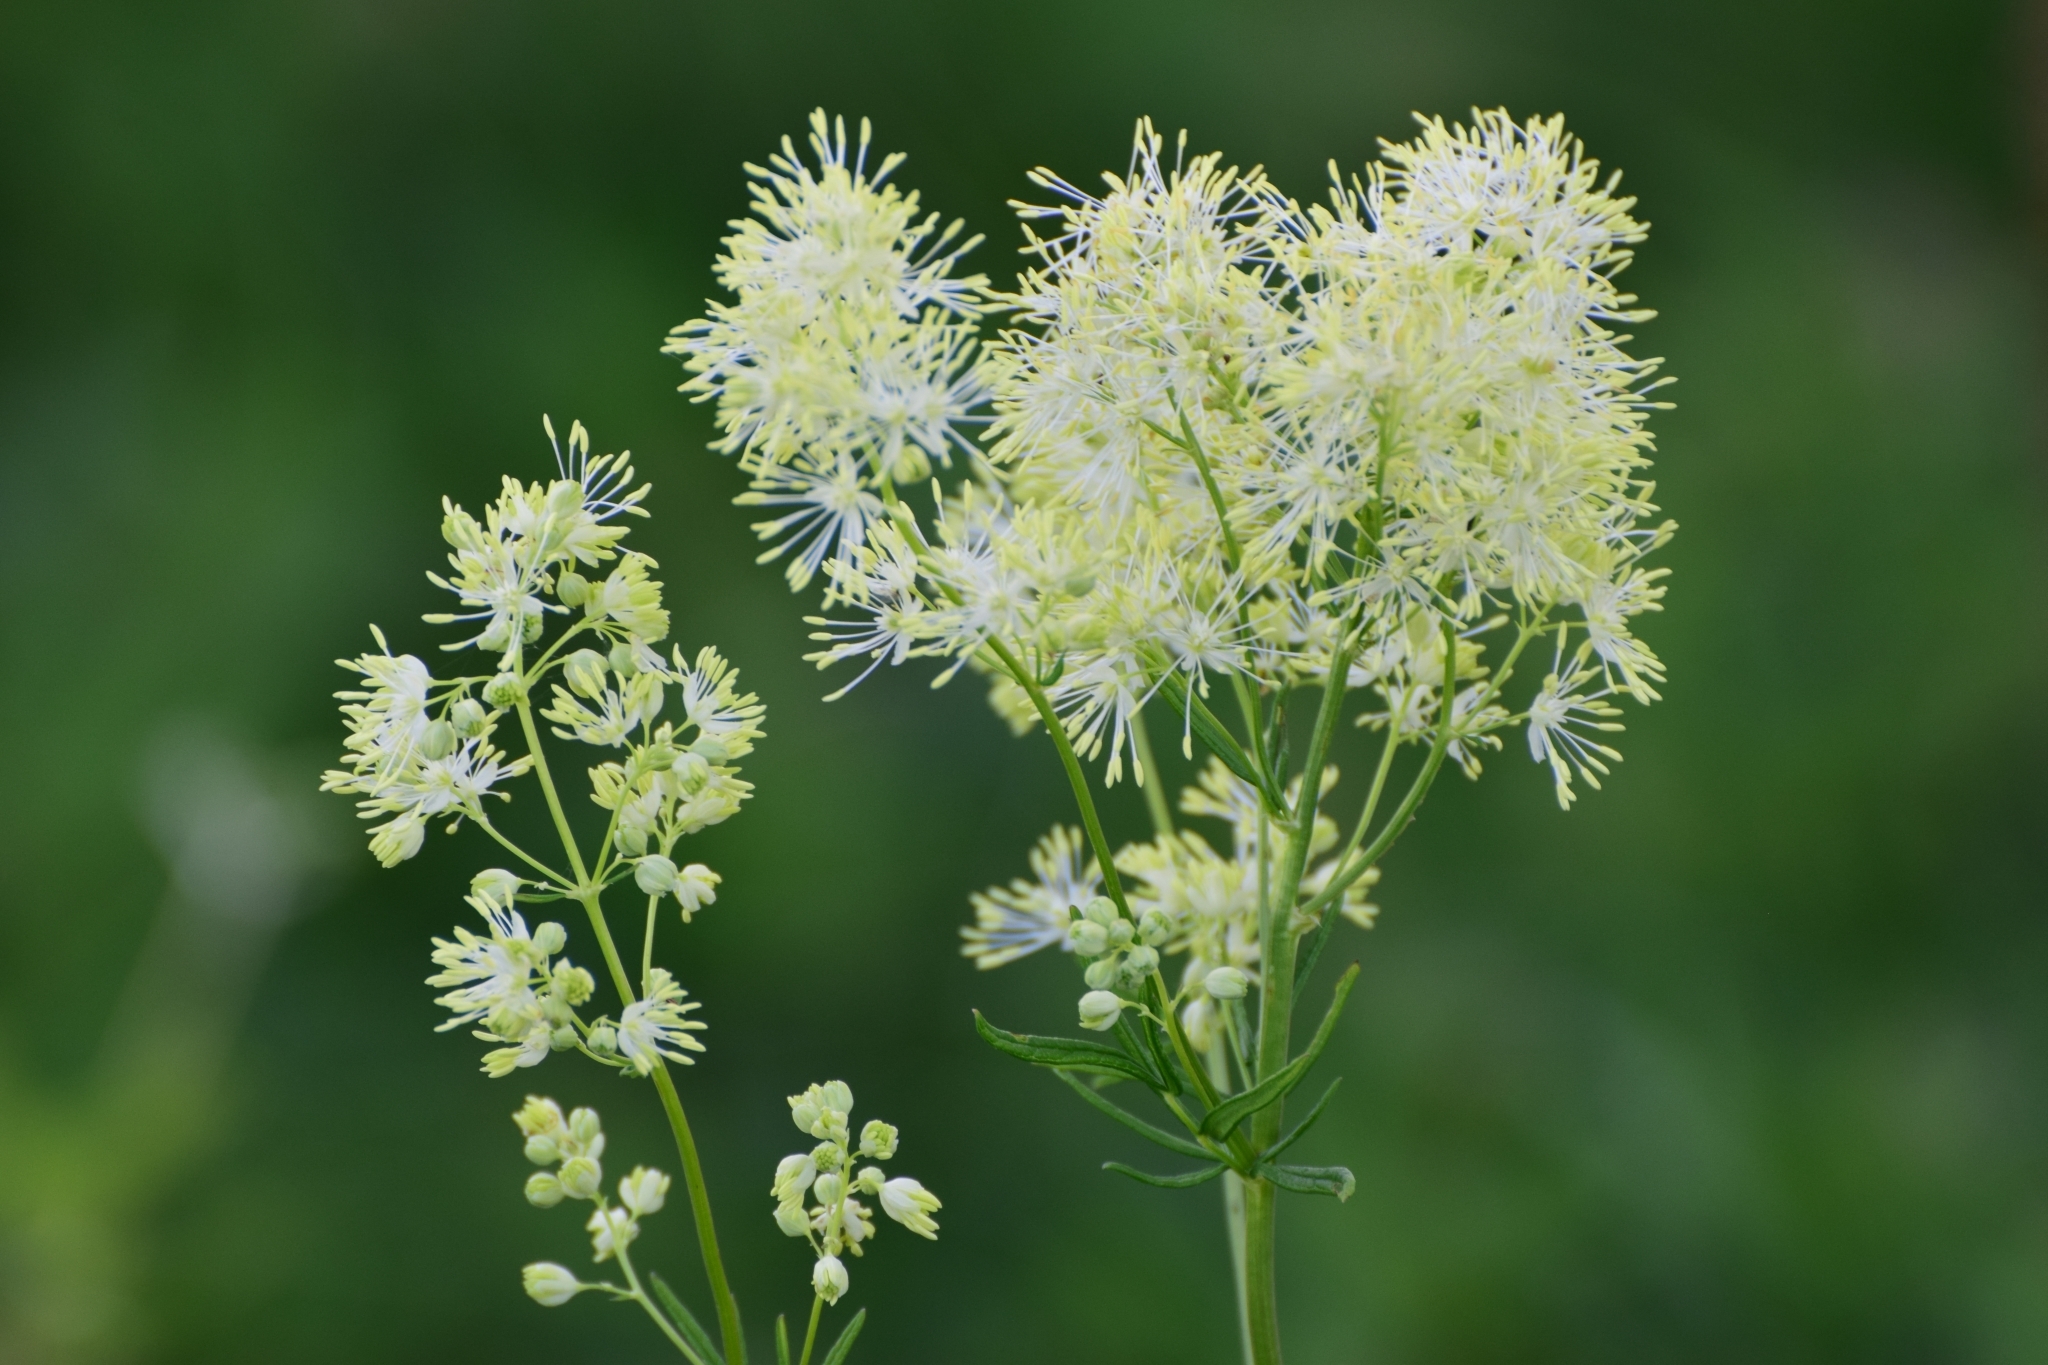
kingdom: Plantae
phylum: Tracheophyta
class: Magnoliopsida
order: Ranunculales
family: Ranunculaceae
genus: Thalictrum
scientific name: Thalictrum lucidum
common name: Shining meadow-rue
